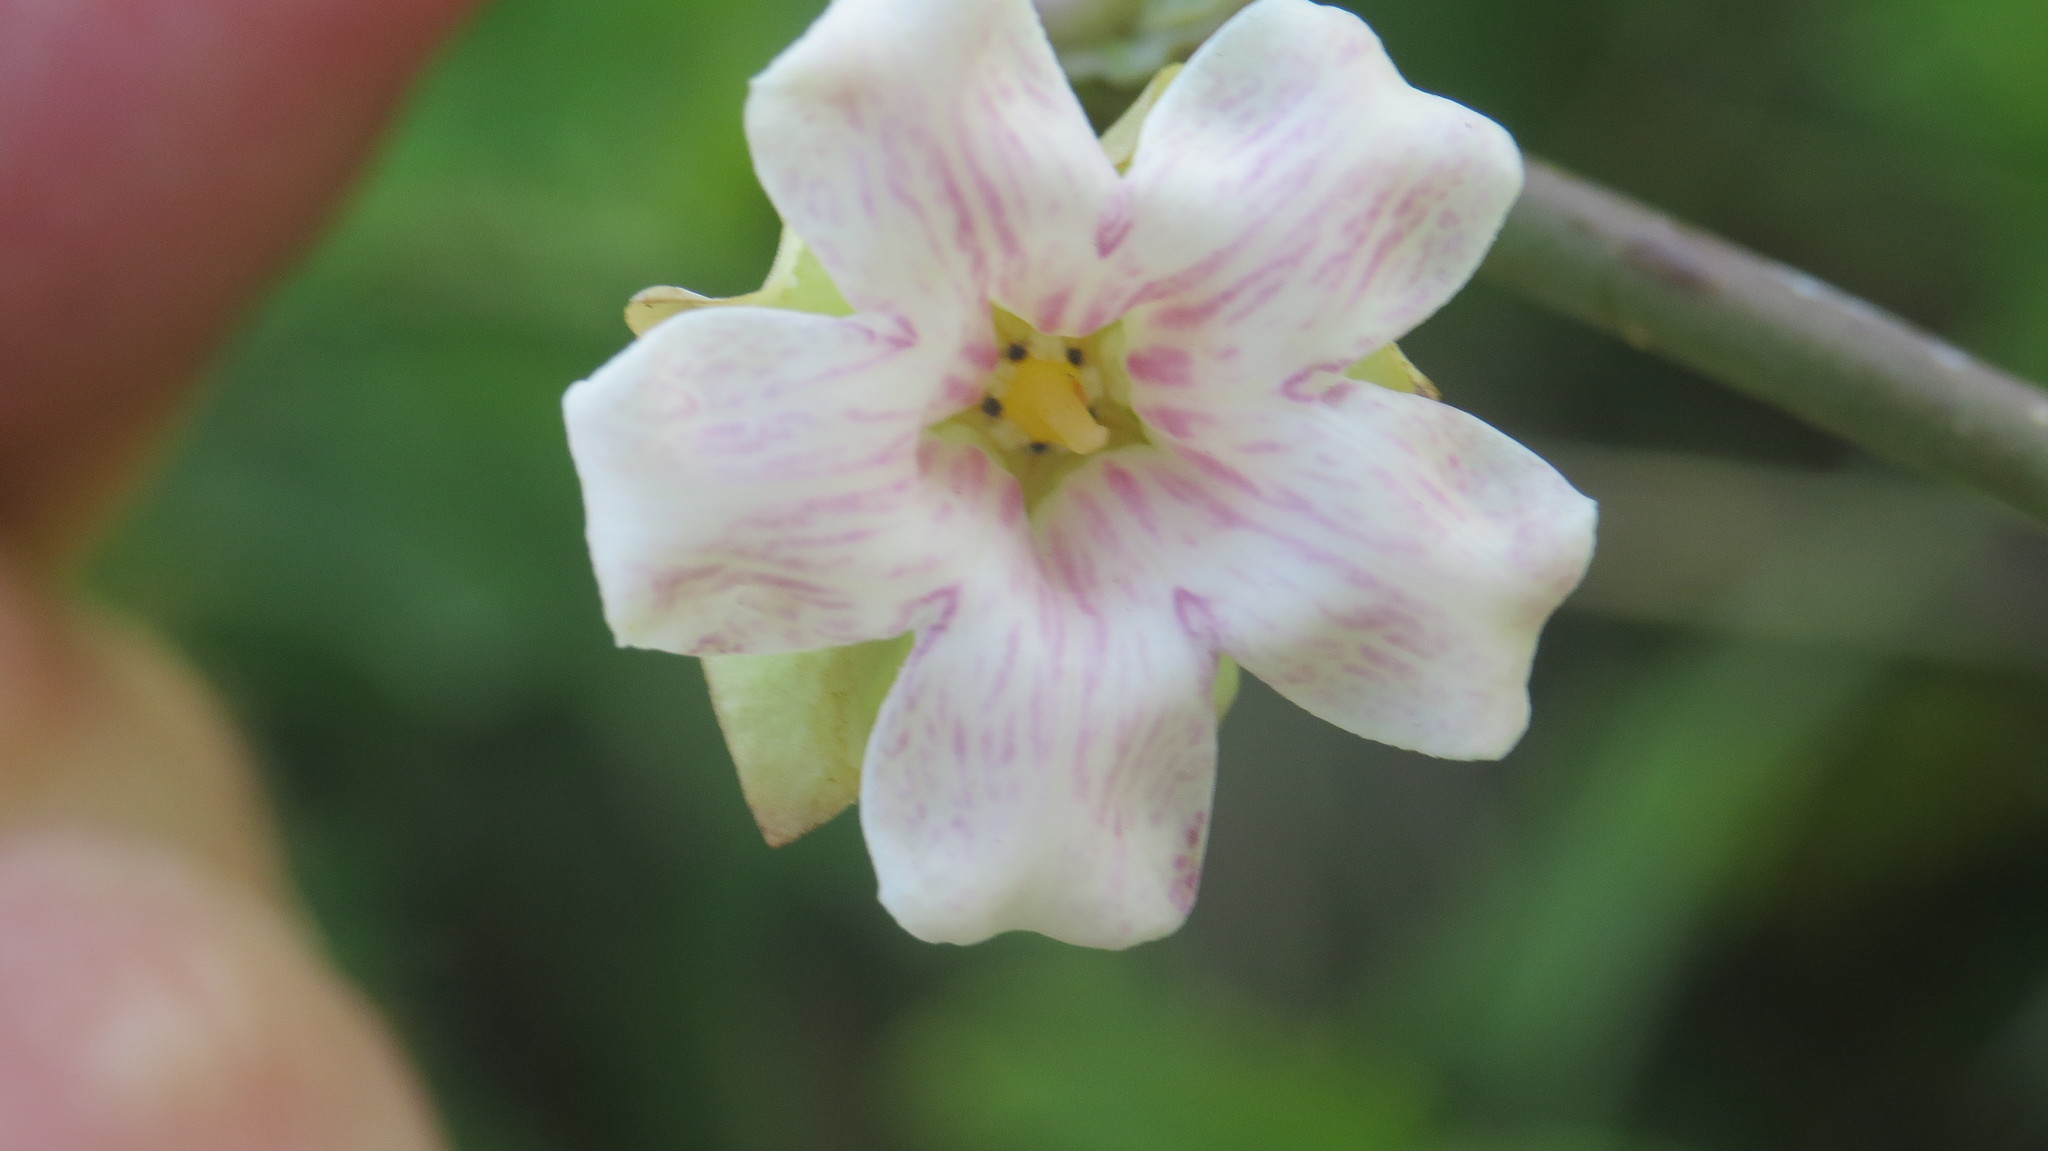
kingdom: Plantae
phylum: Tracheophyta
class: Magnoliopsida
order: Gentianales
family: Apocynaceae
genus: Araujia
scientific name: Araujia sericifera
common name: White bladderflower
